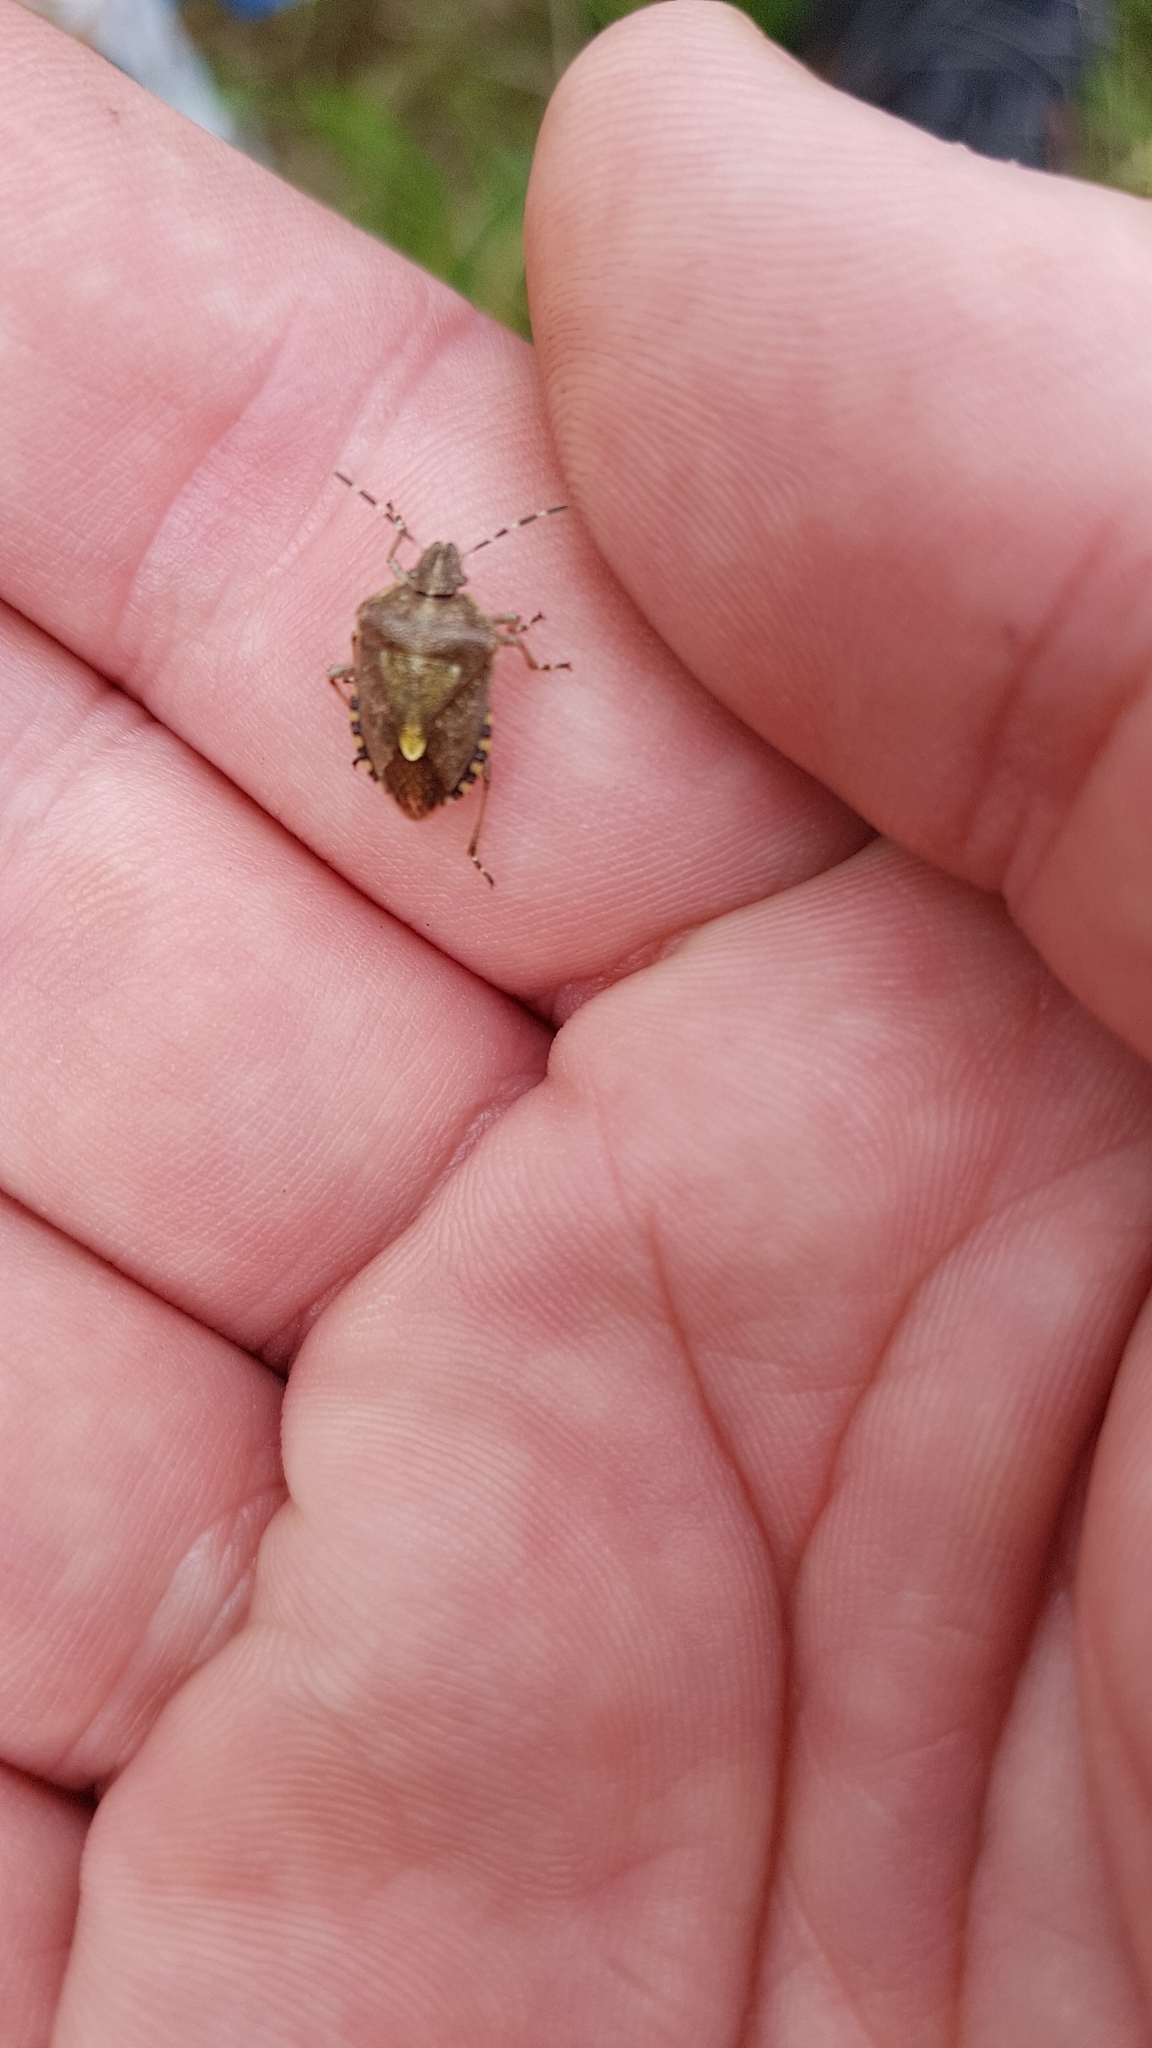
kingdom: Animalia
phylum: Arthropoda
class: Insecta
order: Hemiptera
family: Pentatomidae
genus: Dolycoris
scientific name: Dolycoris baccarum
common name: Sloe bug
